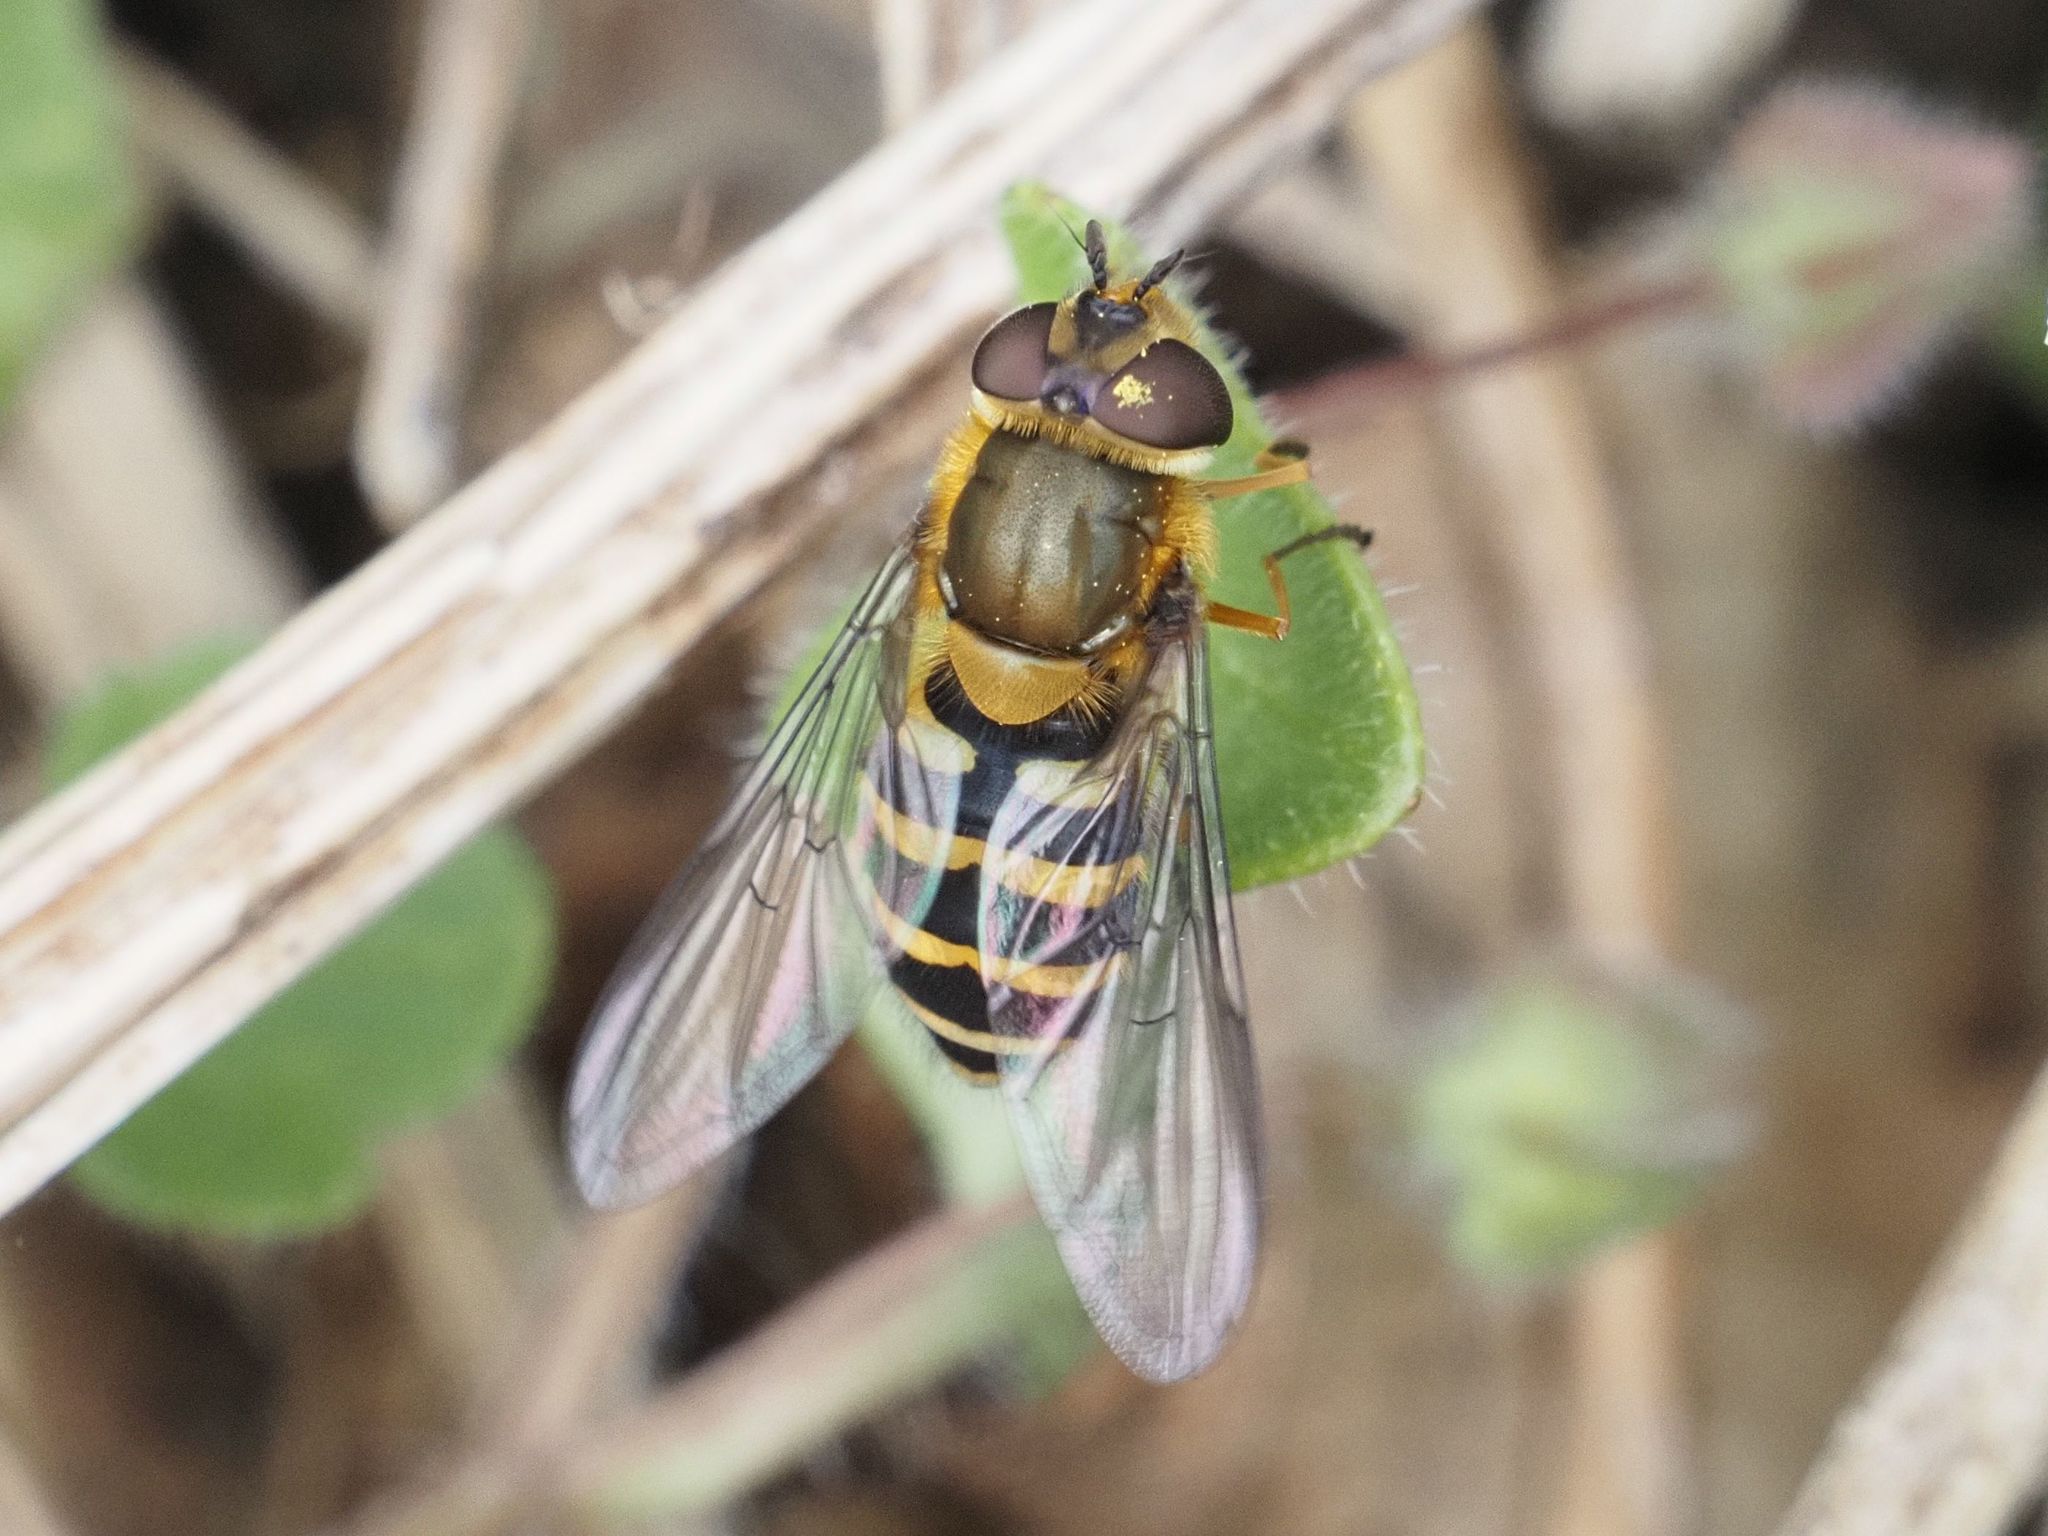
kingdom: Animalia
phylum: Arthropoda
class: Insecta
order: Diptera
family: Syrphidae
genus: Syrphus
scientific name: Syrphus torvus
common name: Hairy-eyed flower fly
